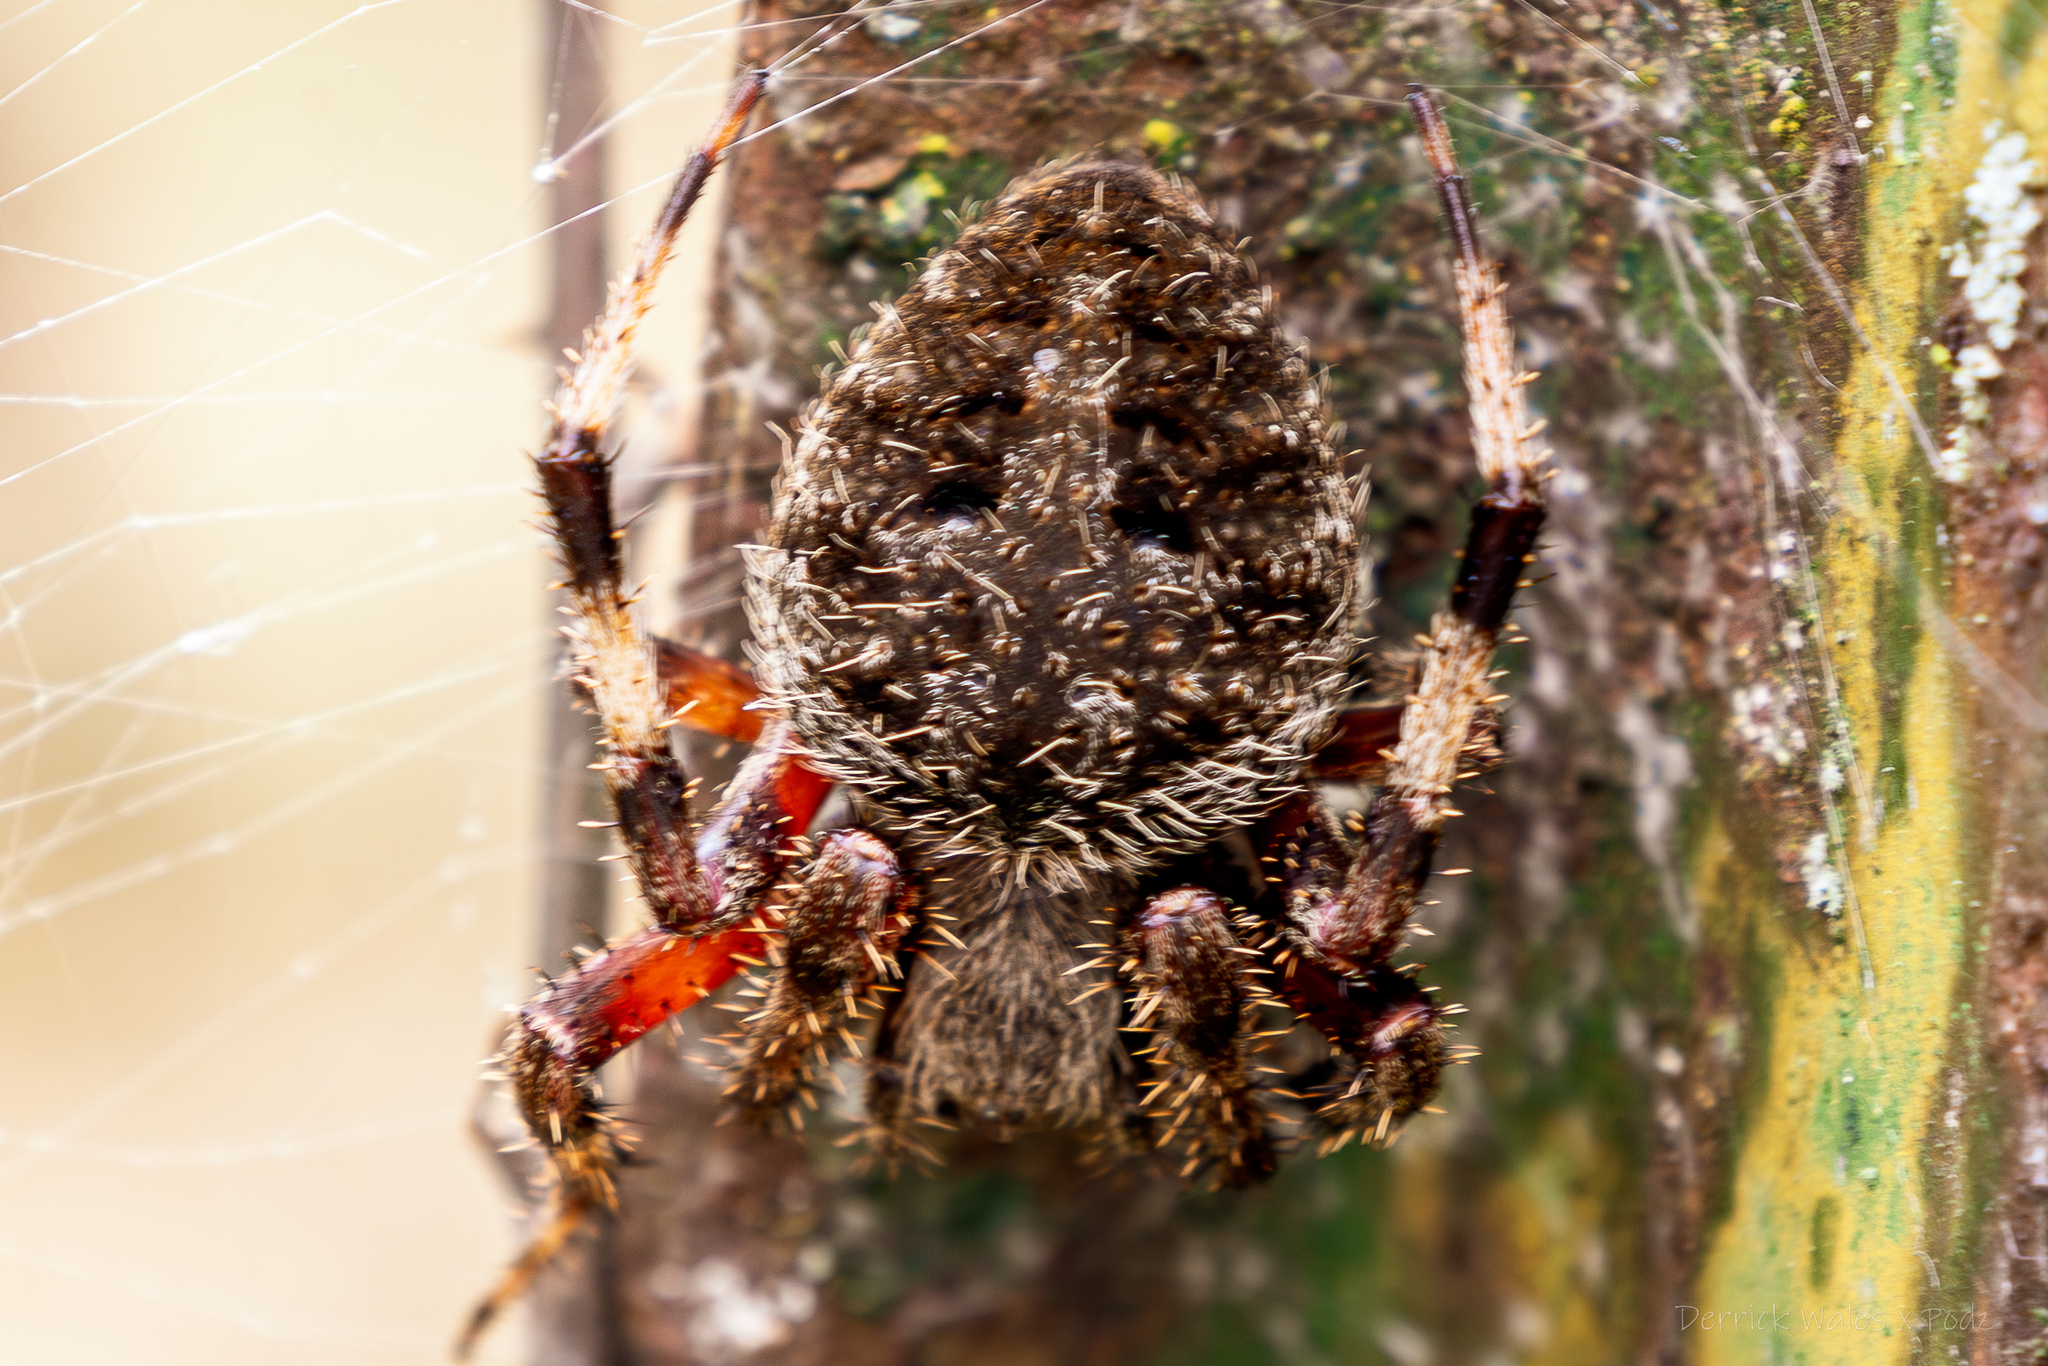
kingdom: Animalia
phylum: Arthropoda
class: Arachnida
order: Araneae
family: Araneidae
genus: Neoscona
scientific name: Neoscona crucifera
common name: Spotted orbweaver
